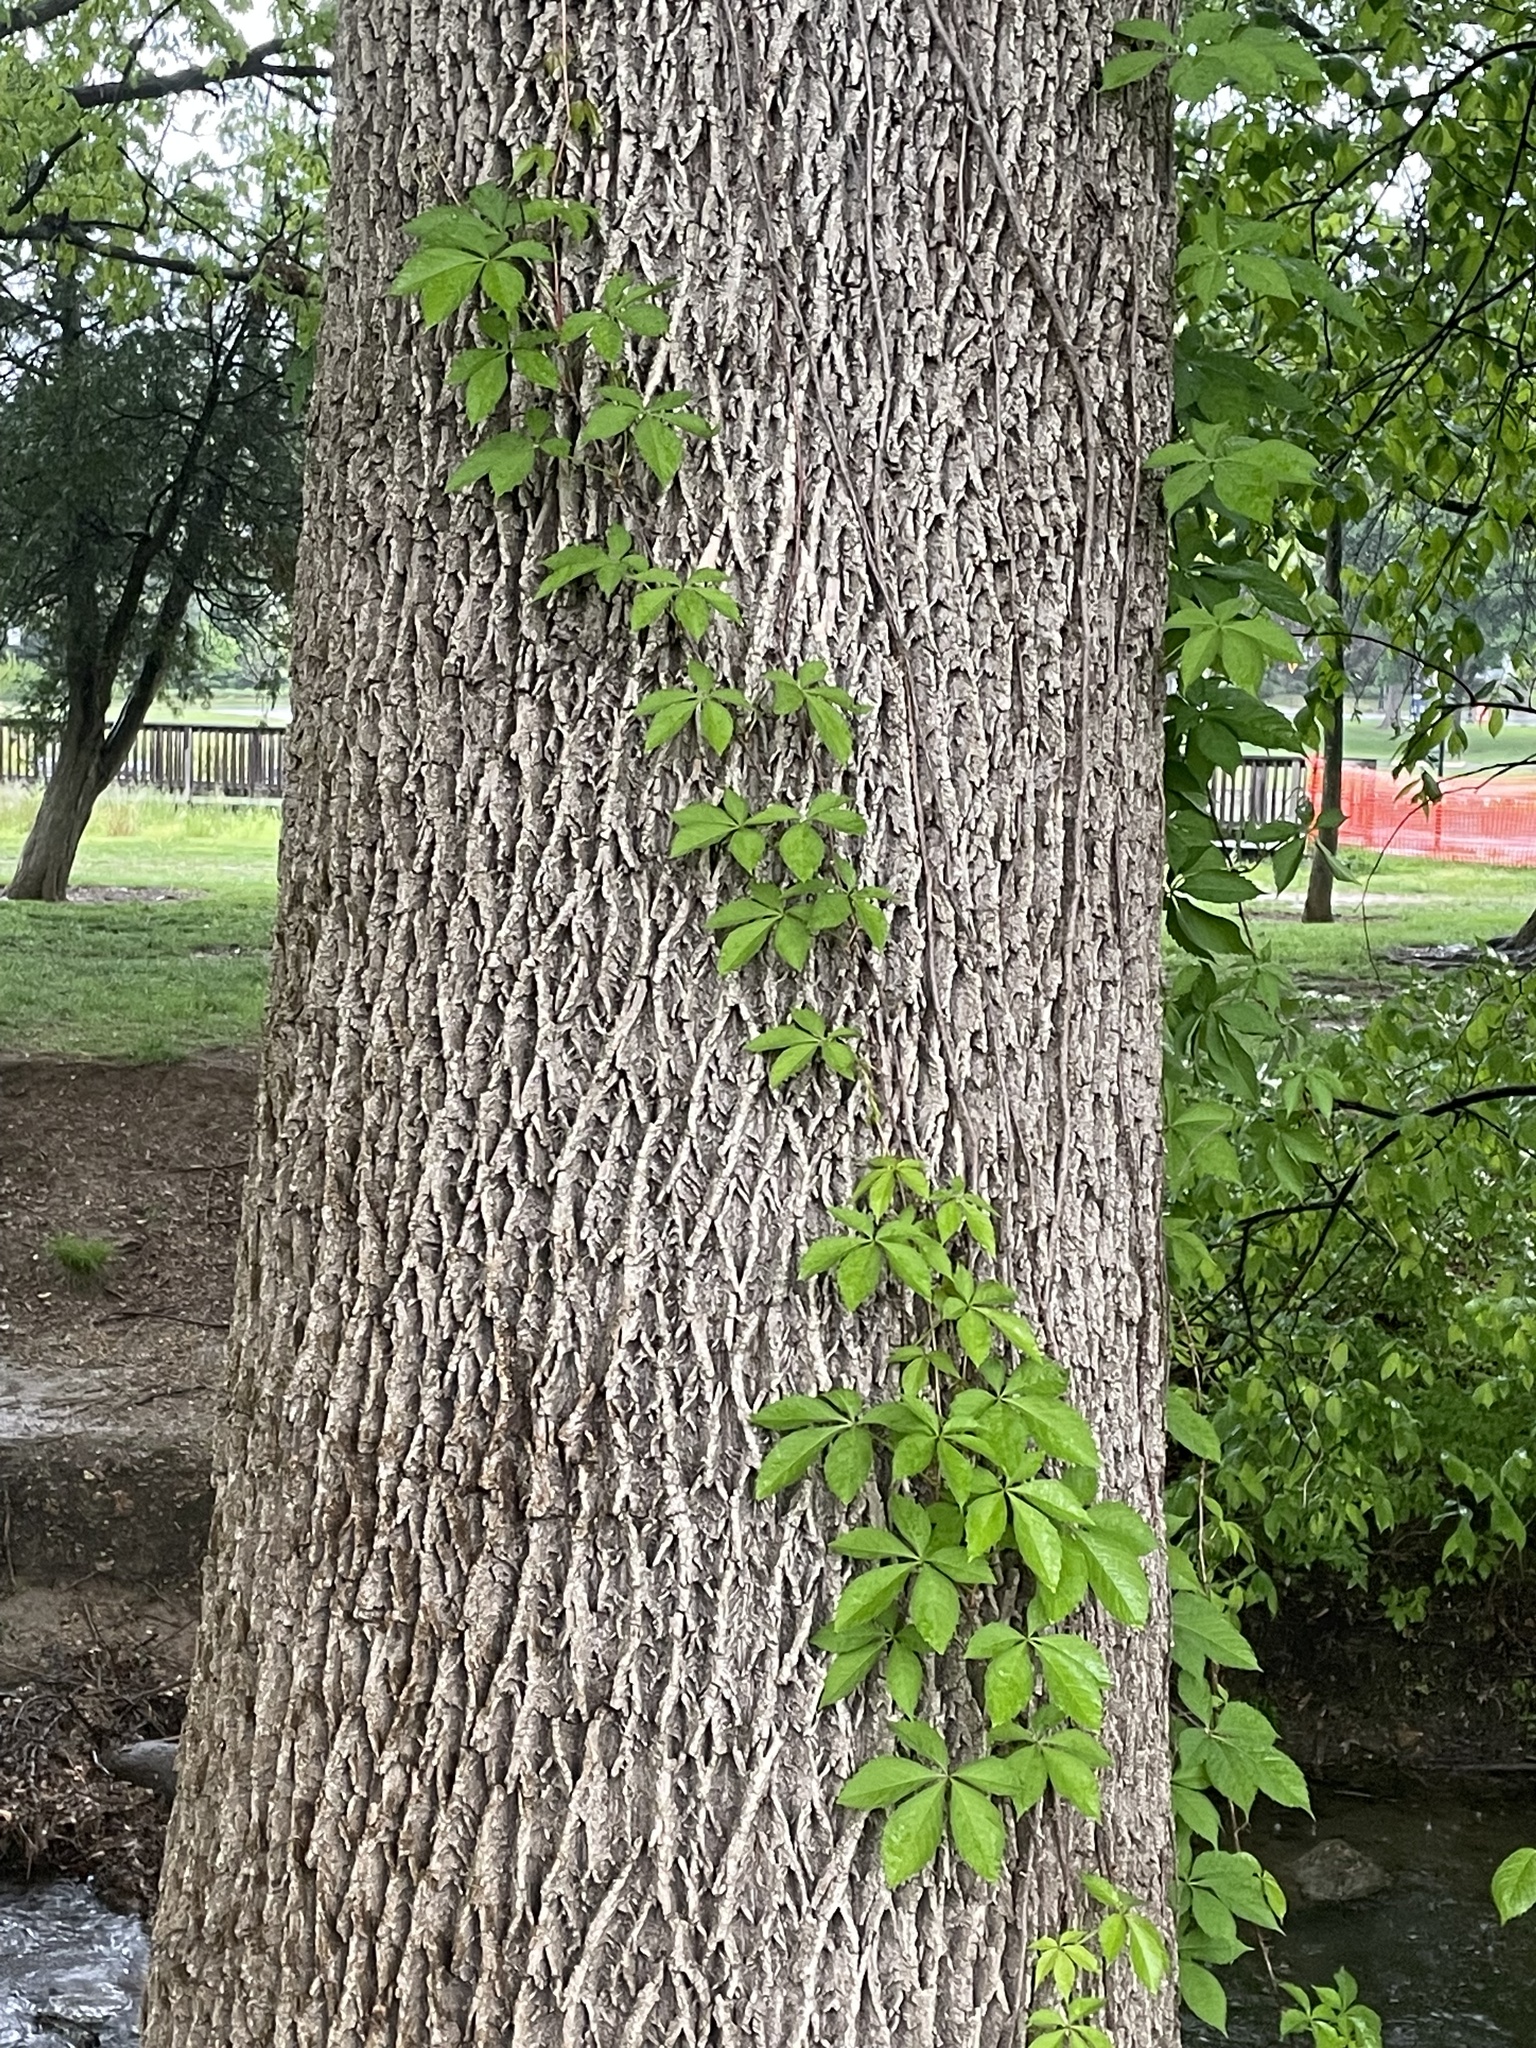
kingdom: Plantae
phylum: Tracheophyta
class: Magnoliopsida
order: Vitales
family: Vitaceae
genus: Parthenocissus
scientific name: Parthenocissus quinquefolia
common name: Virginia-creeper
